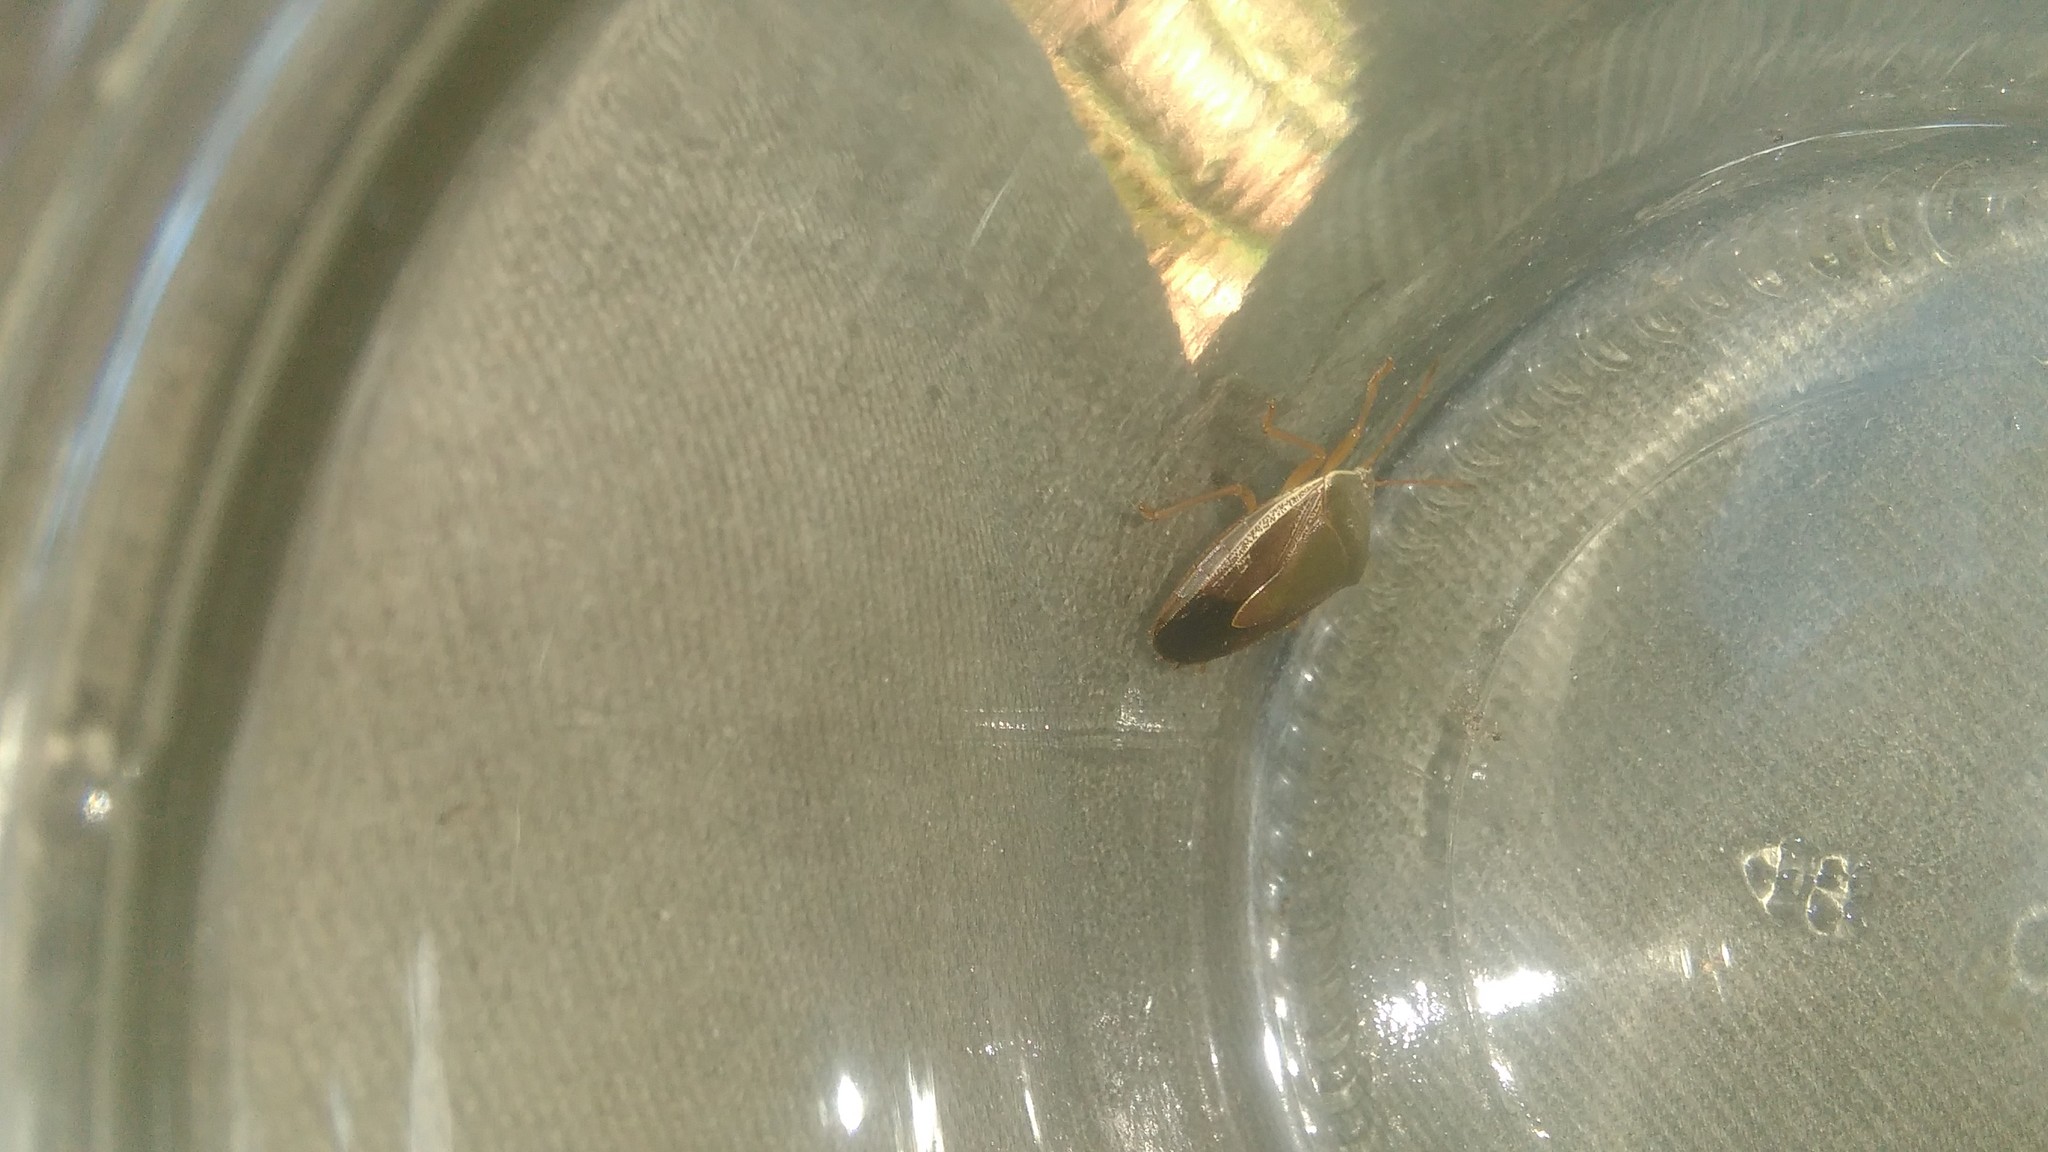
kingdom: Animalia
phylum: Arthropoda
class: Insecta
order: Hemiptera
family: Pentatomidae
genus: Edessa
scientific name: Edessa meditabunda
